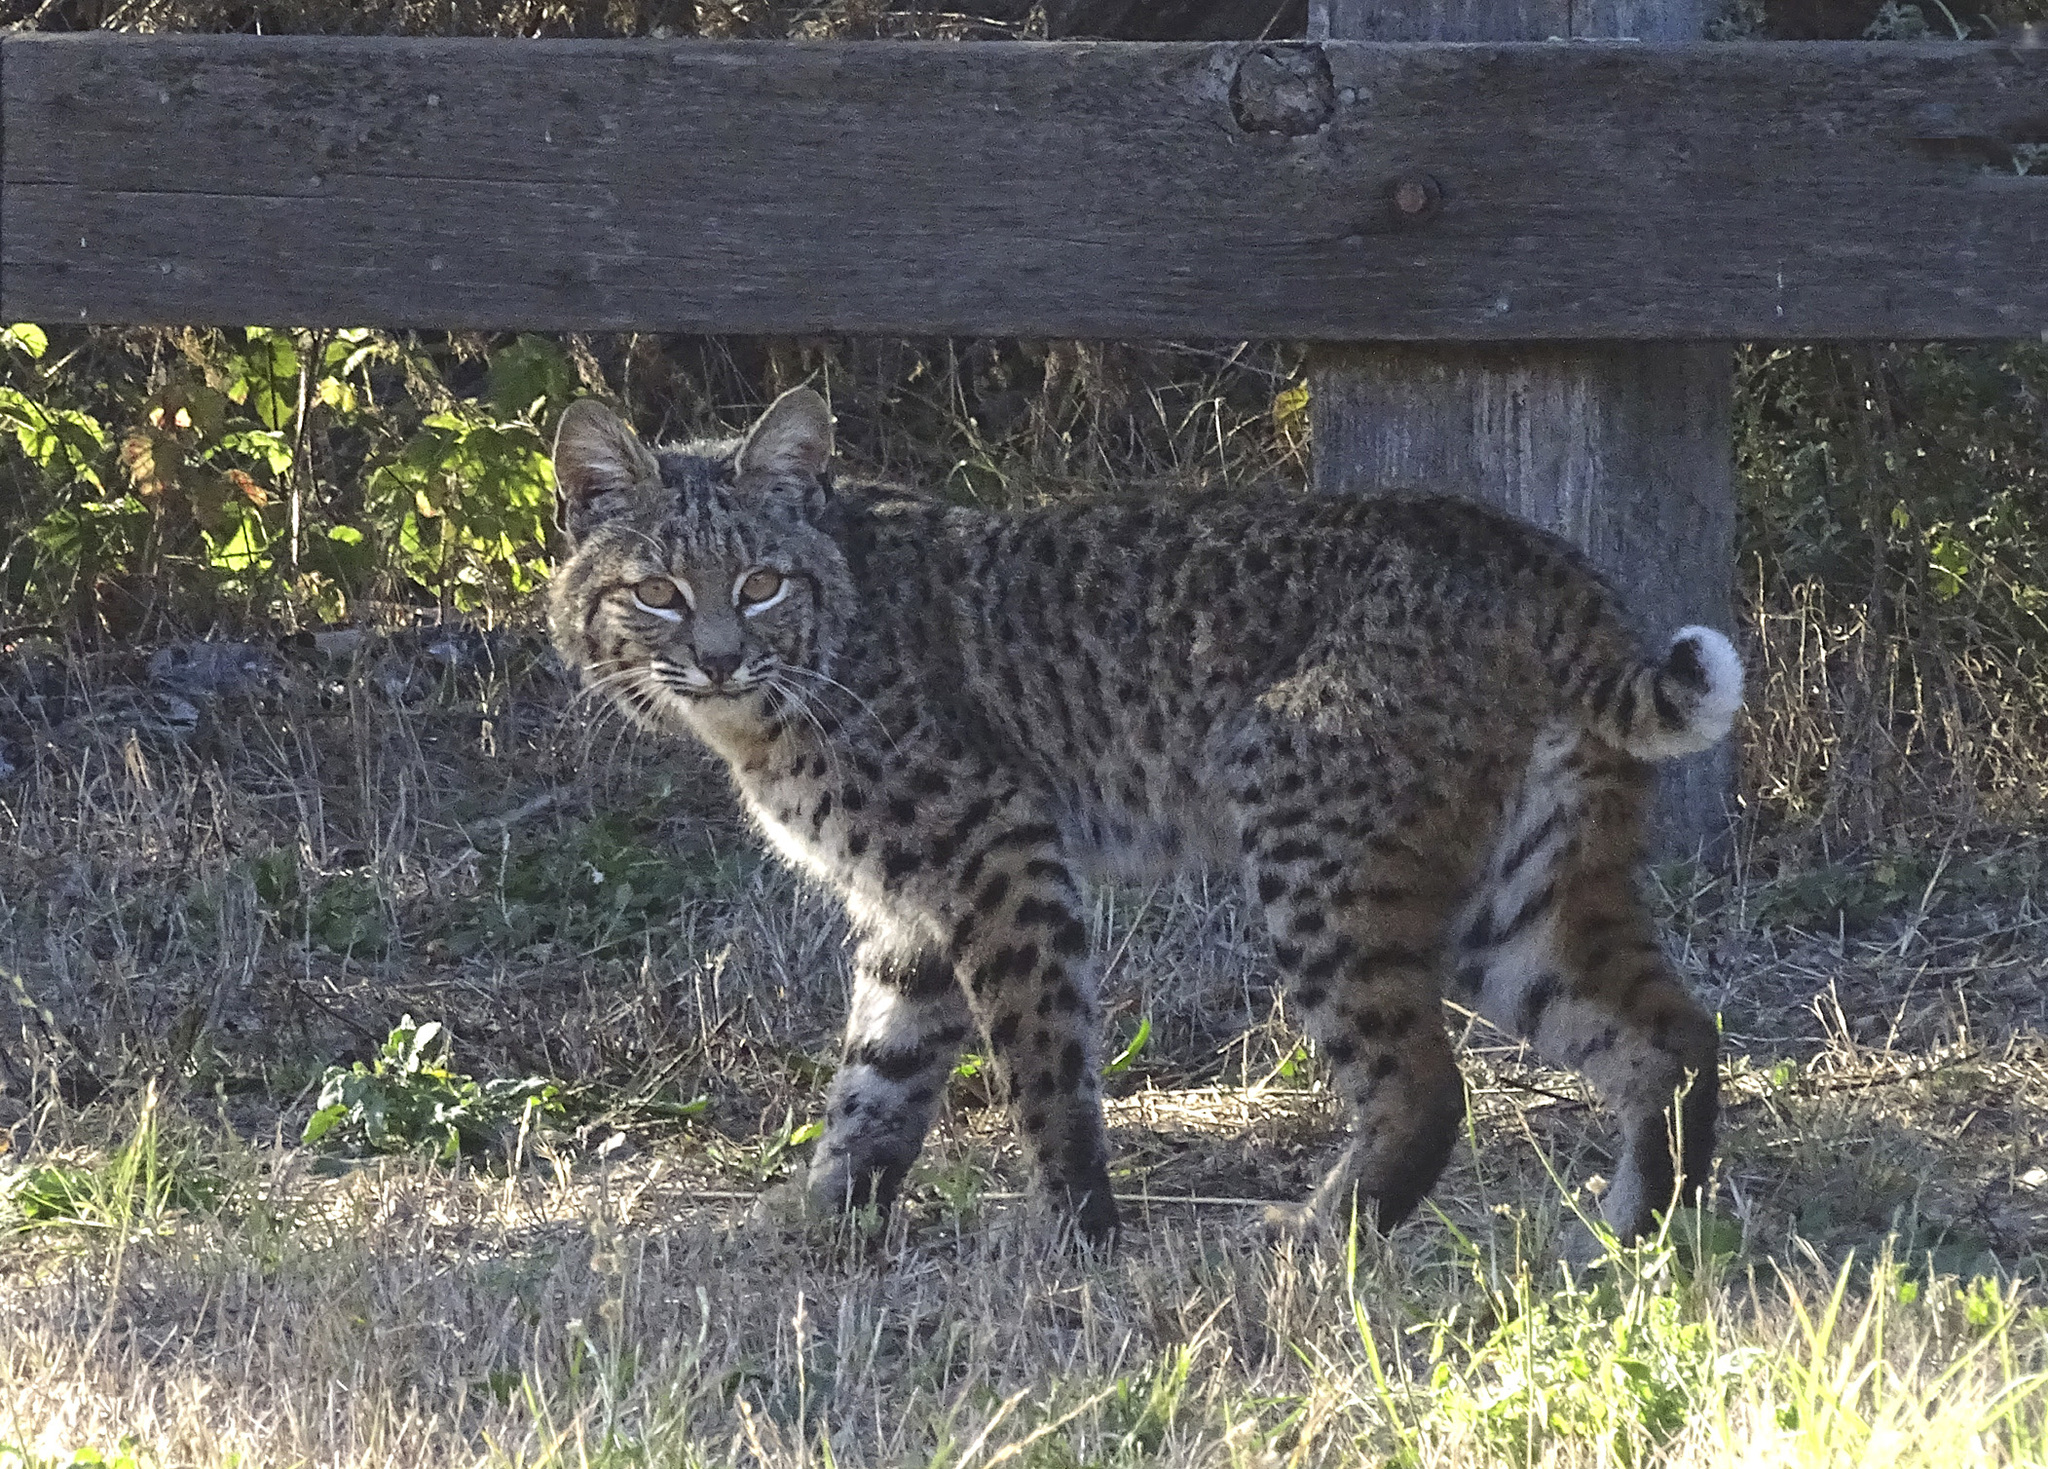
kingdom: Animalia
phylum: Chordata
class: Mammalia
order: Carnivora
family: Felidae
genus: Lynx
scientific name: Lynx rufus
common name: Bobcat
